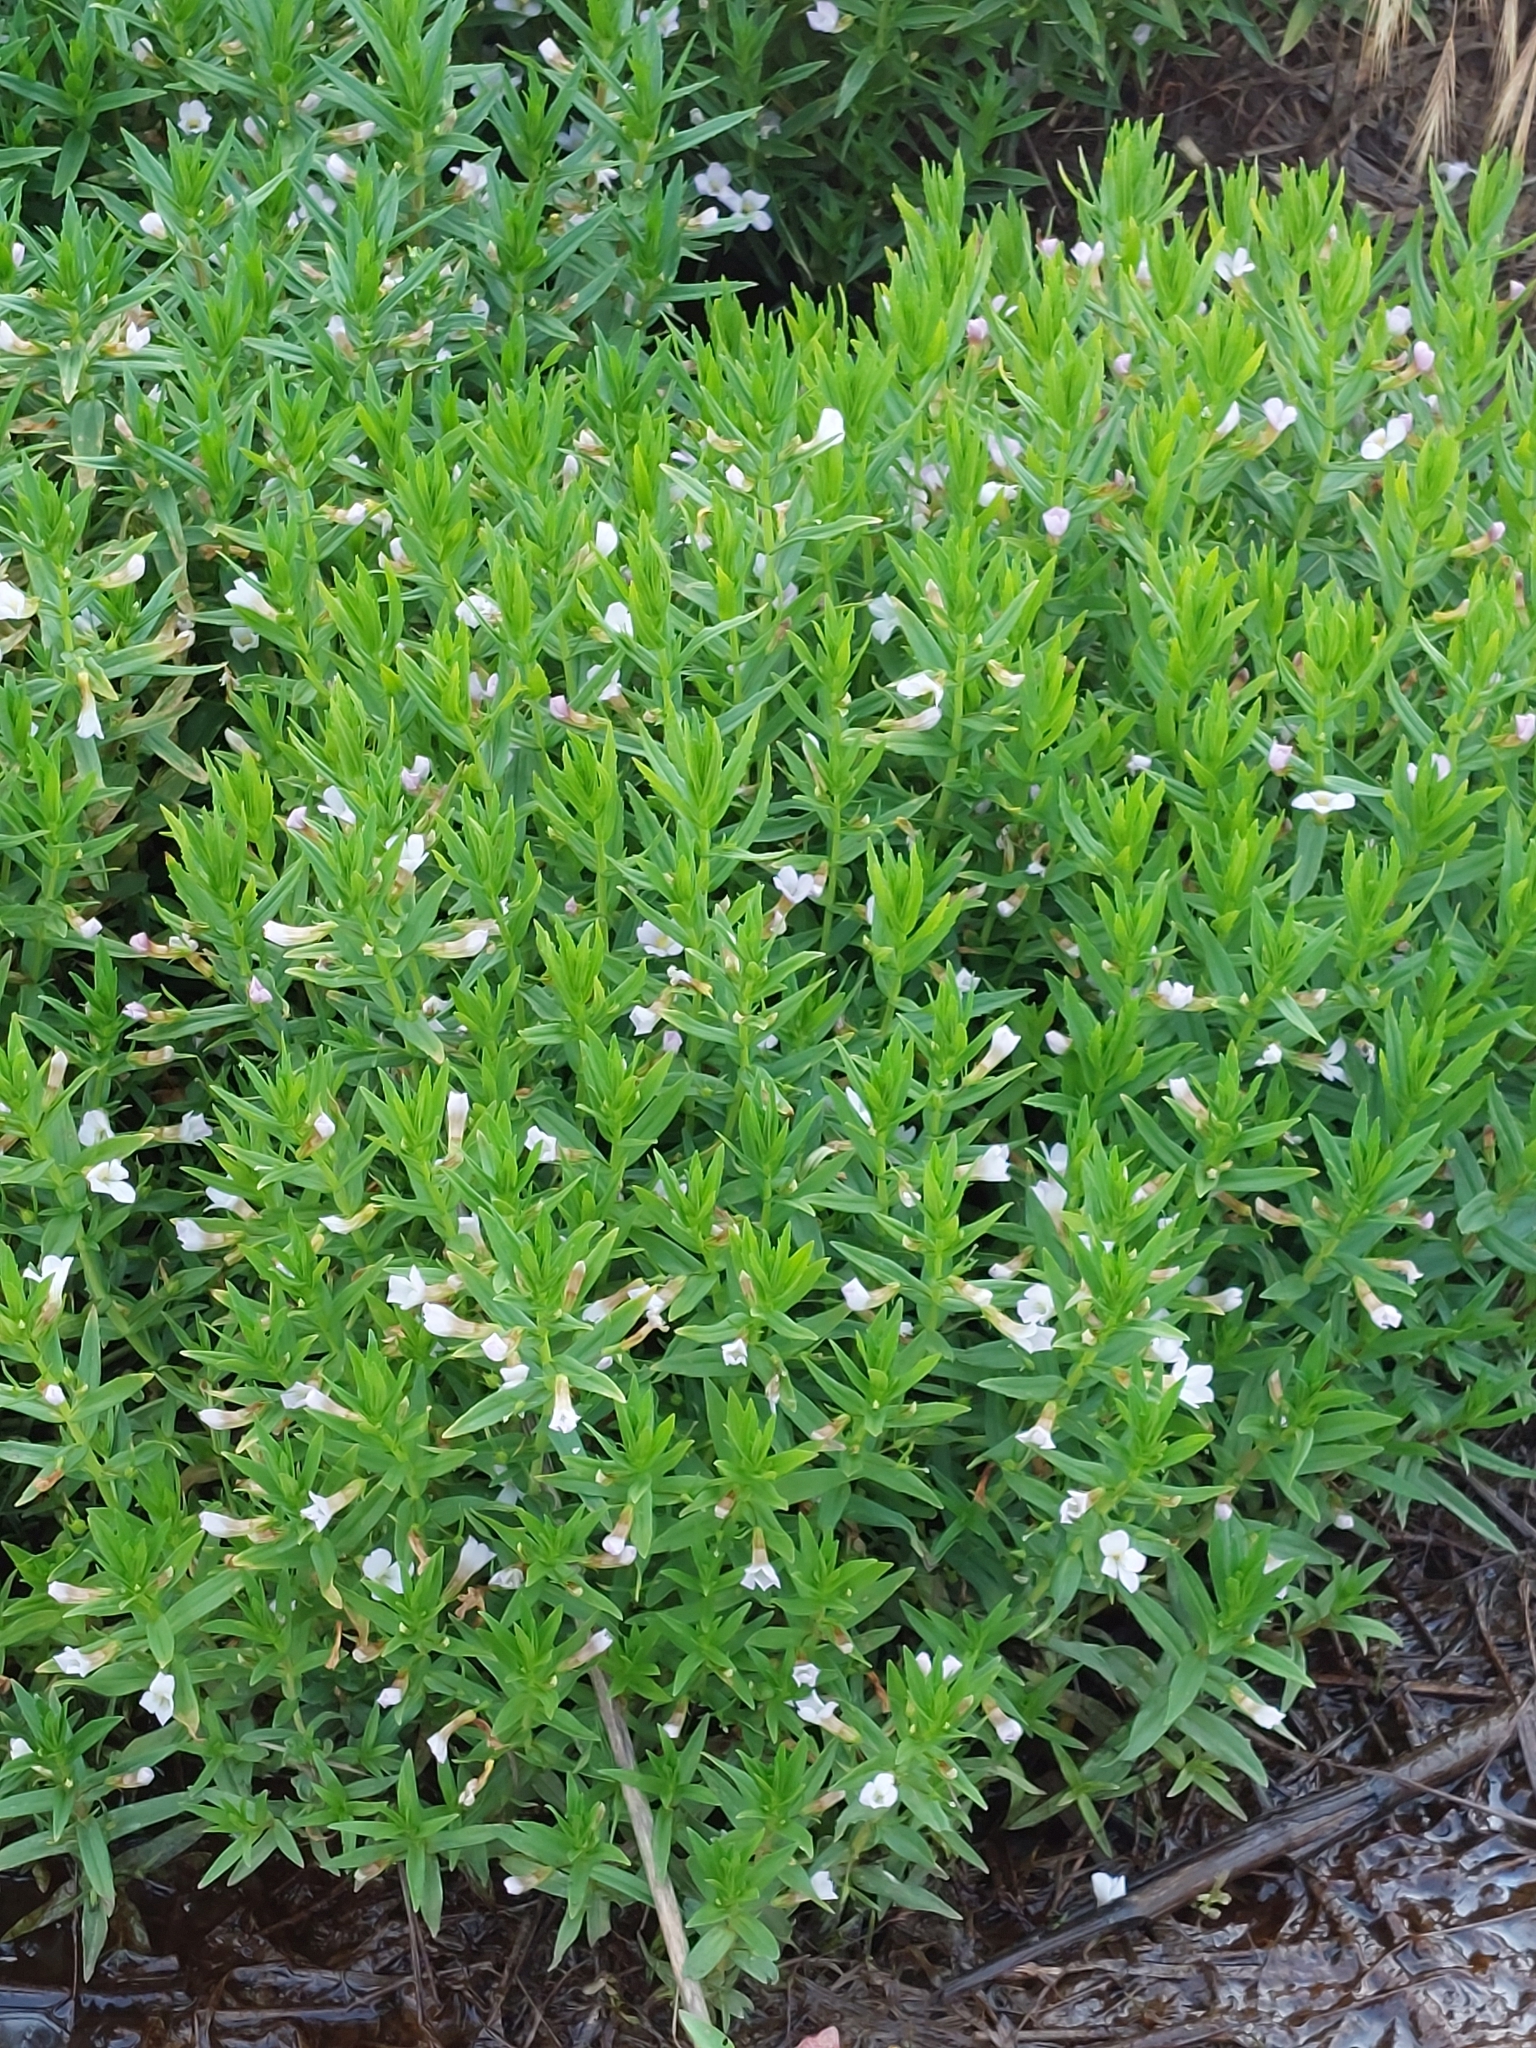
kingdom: Plantae
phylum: Tracheophyta
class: Magnoliopsida
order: Lamiales
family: Plantaginaceae
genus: Gratiola
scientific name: Gratiola officinalis
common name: Gratiola
